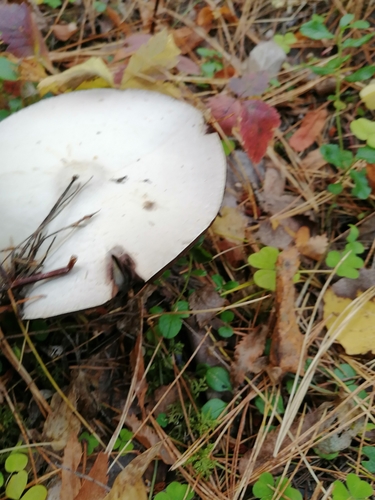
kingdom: Fungi
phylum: Basidiomycota
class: Agaricomycetes
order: Agaricales
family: Agaricaceae
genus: Agaricus
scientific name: Agaricus sylvicola
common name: Wood mushroom
